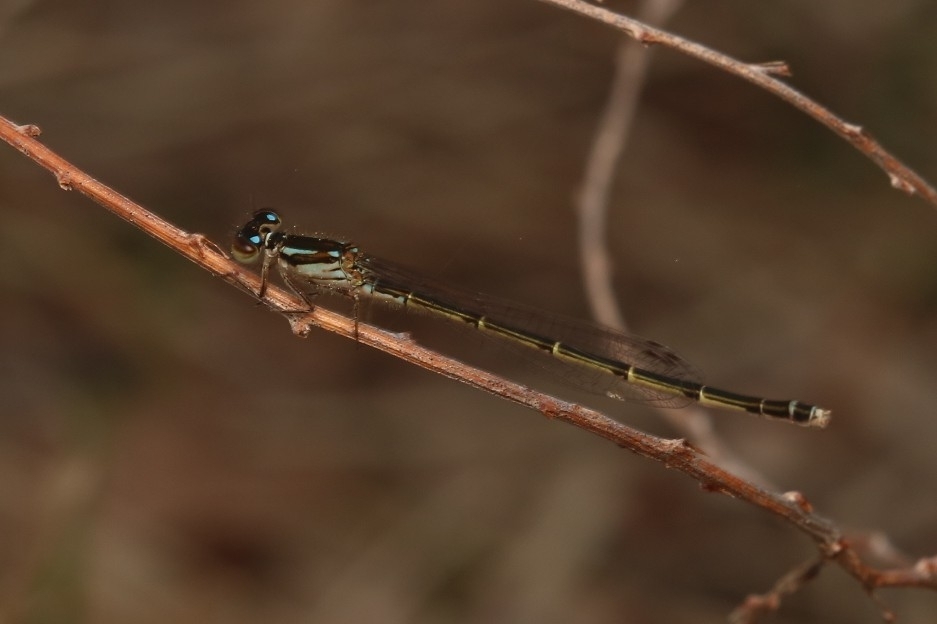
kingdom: Animalia
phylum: Arthropoda
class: Insecta
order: Odonata
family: Coenagrionidae
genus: Ischnura
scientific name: Ischnura posita
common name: Fragile forktail
